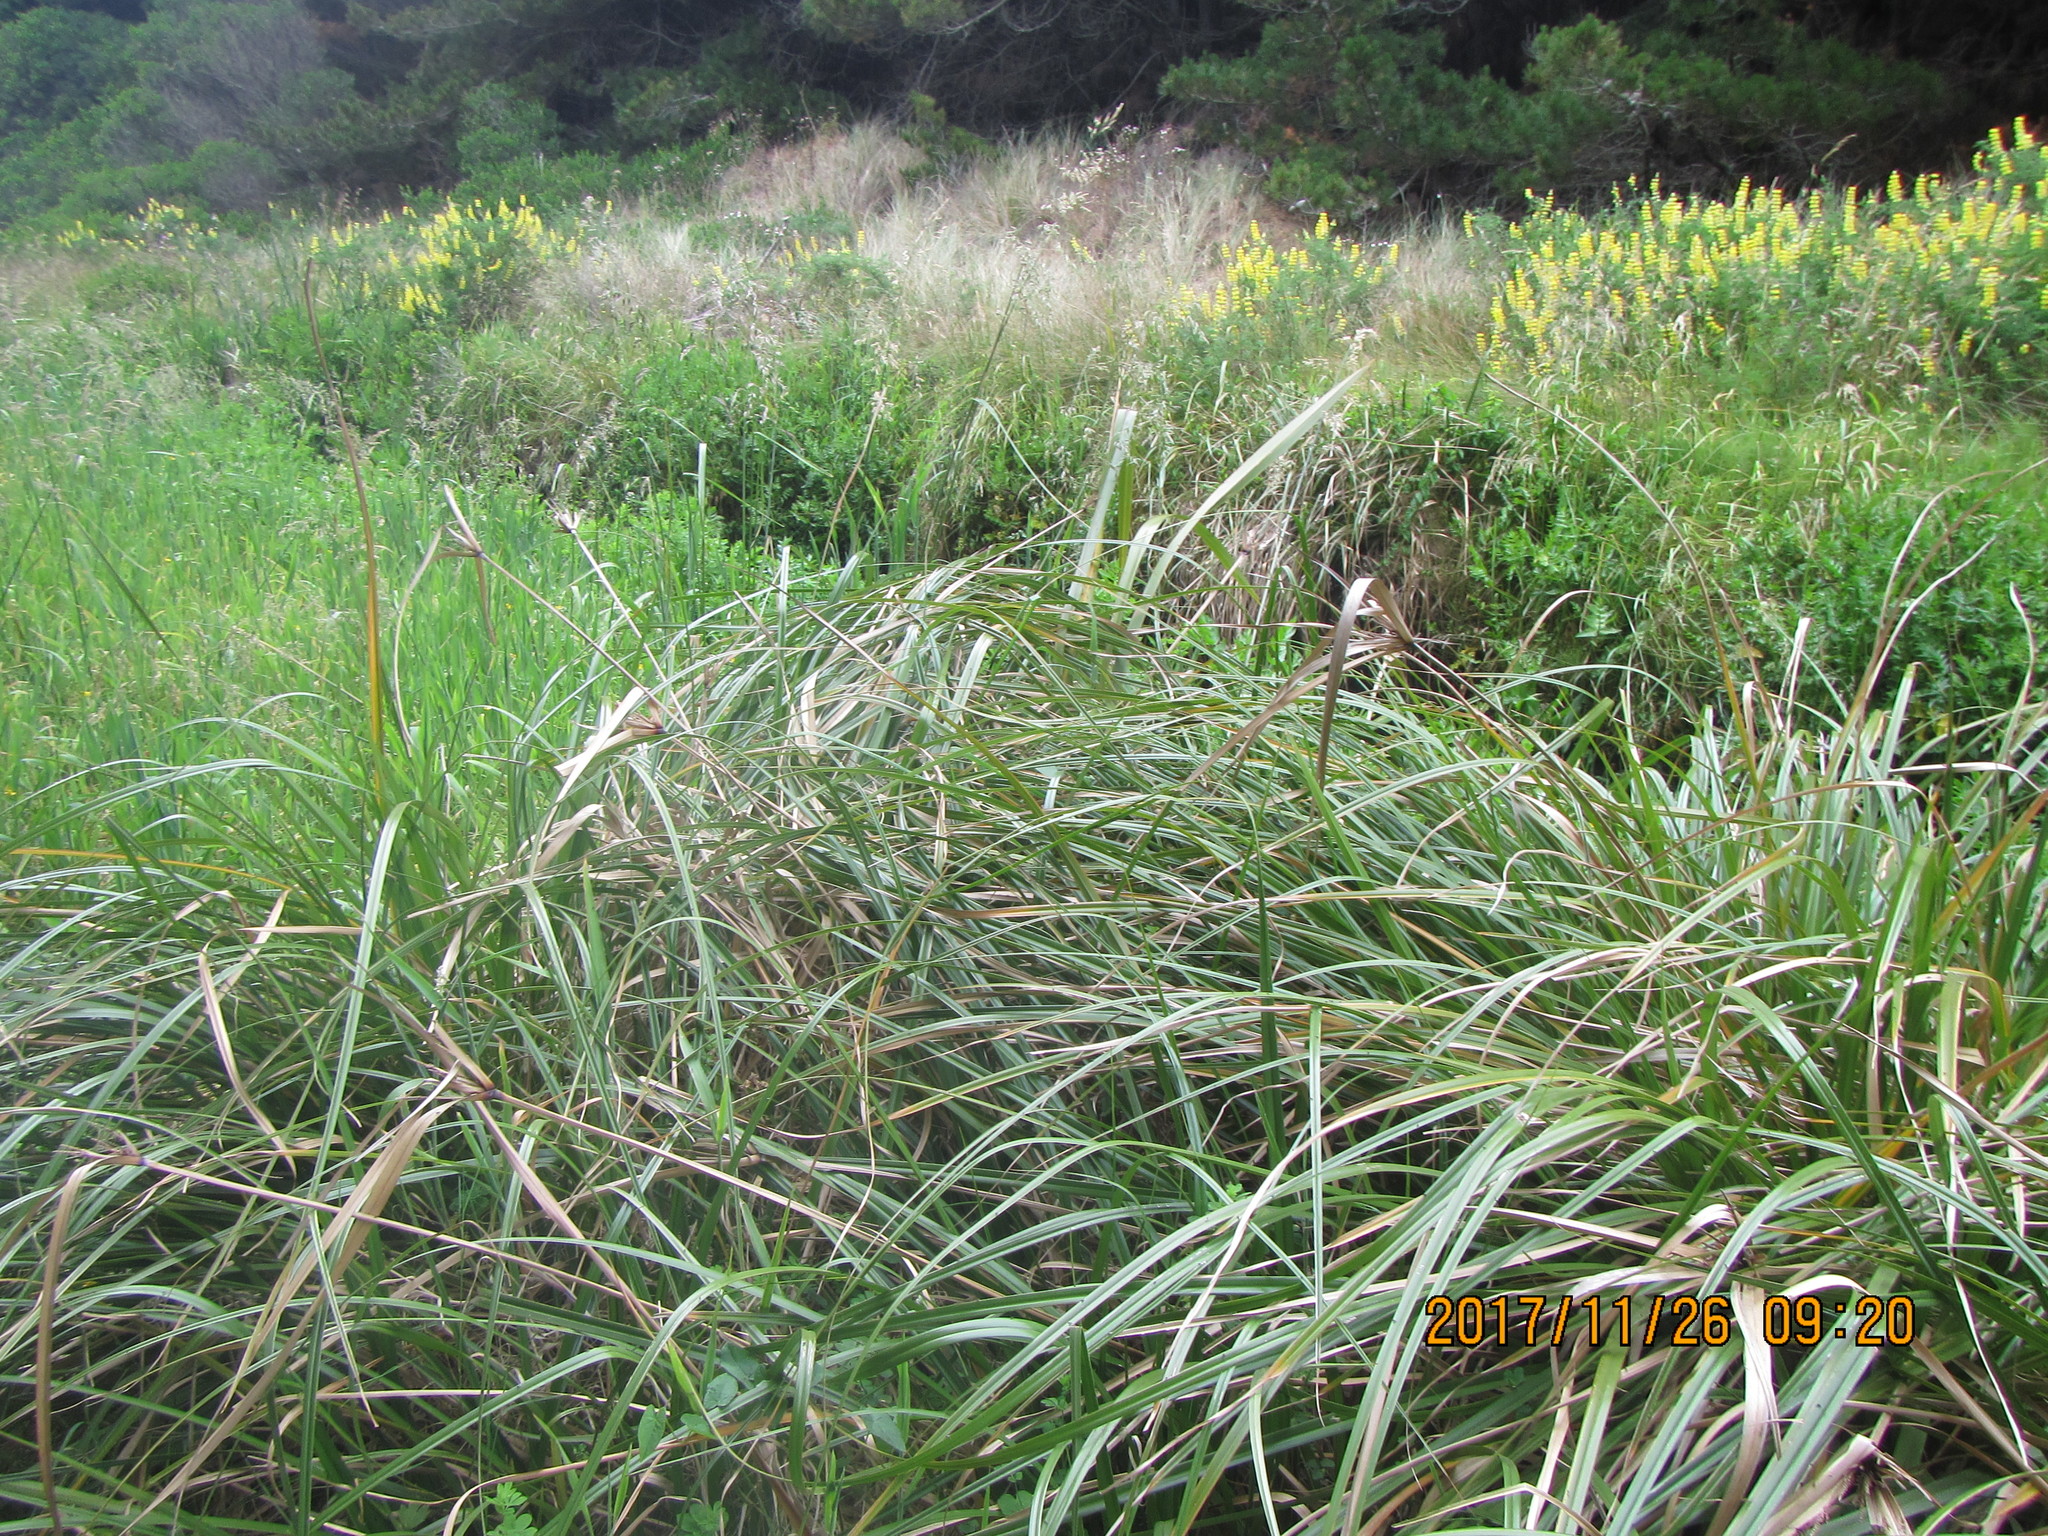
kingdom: Plantae
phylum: Tracheophyta
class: Liliopsida
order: Poales
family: Cyperaceae
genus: Cyperus
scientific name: Cyperus ustulatus
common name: Giant umbrella-sedge
